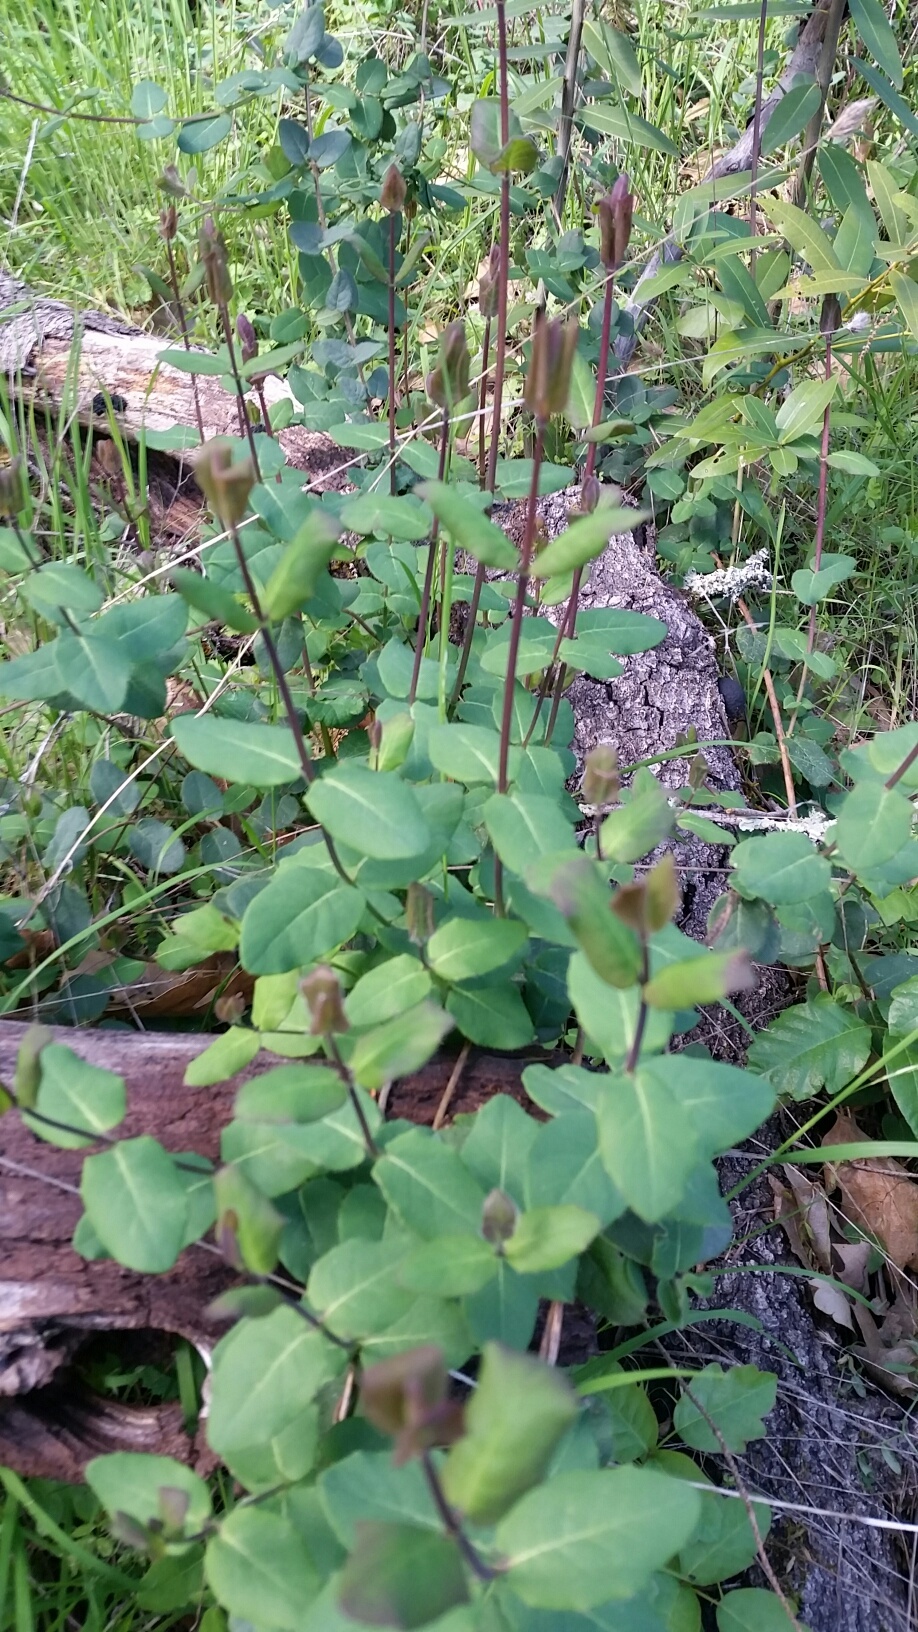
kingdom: Plantae
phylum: Tracheophyta
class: Magnoliopsida
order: Dipsacales
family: Caprifoliaceae
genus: Lonicera
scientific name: Lonicera hispidula
